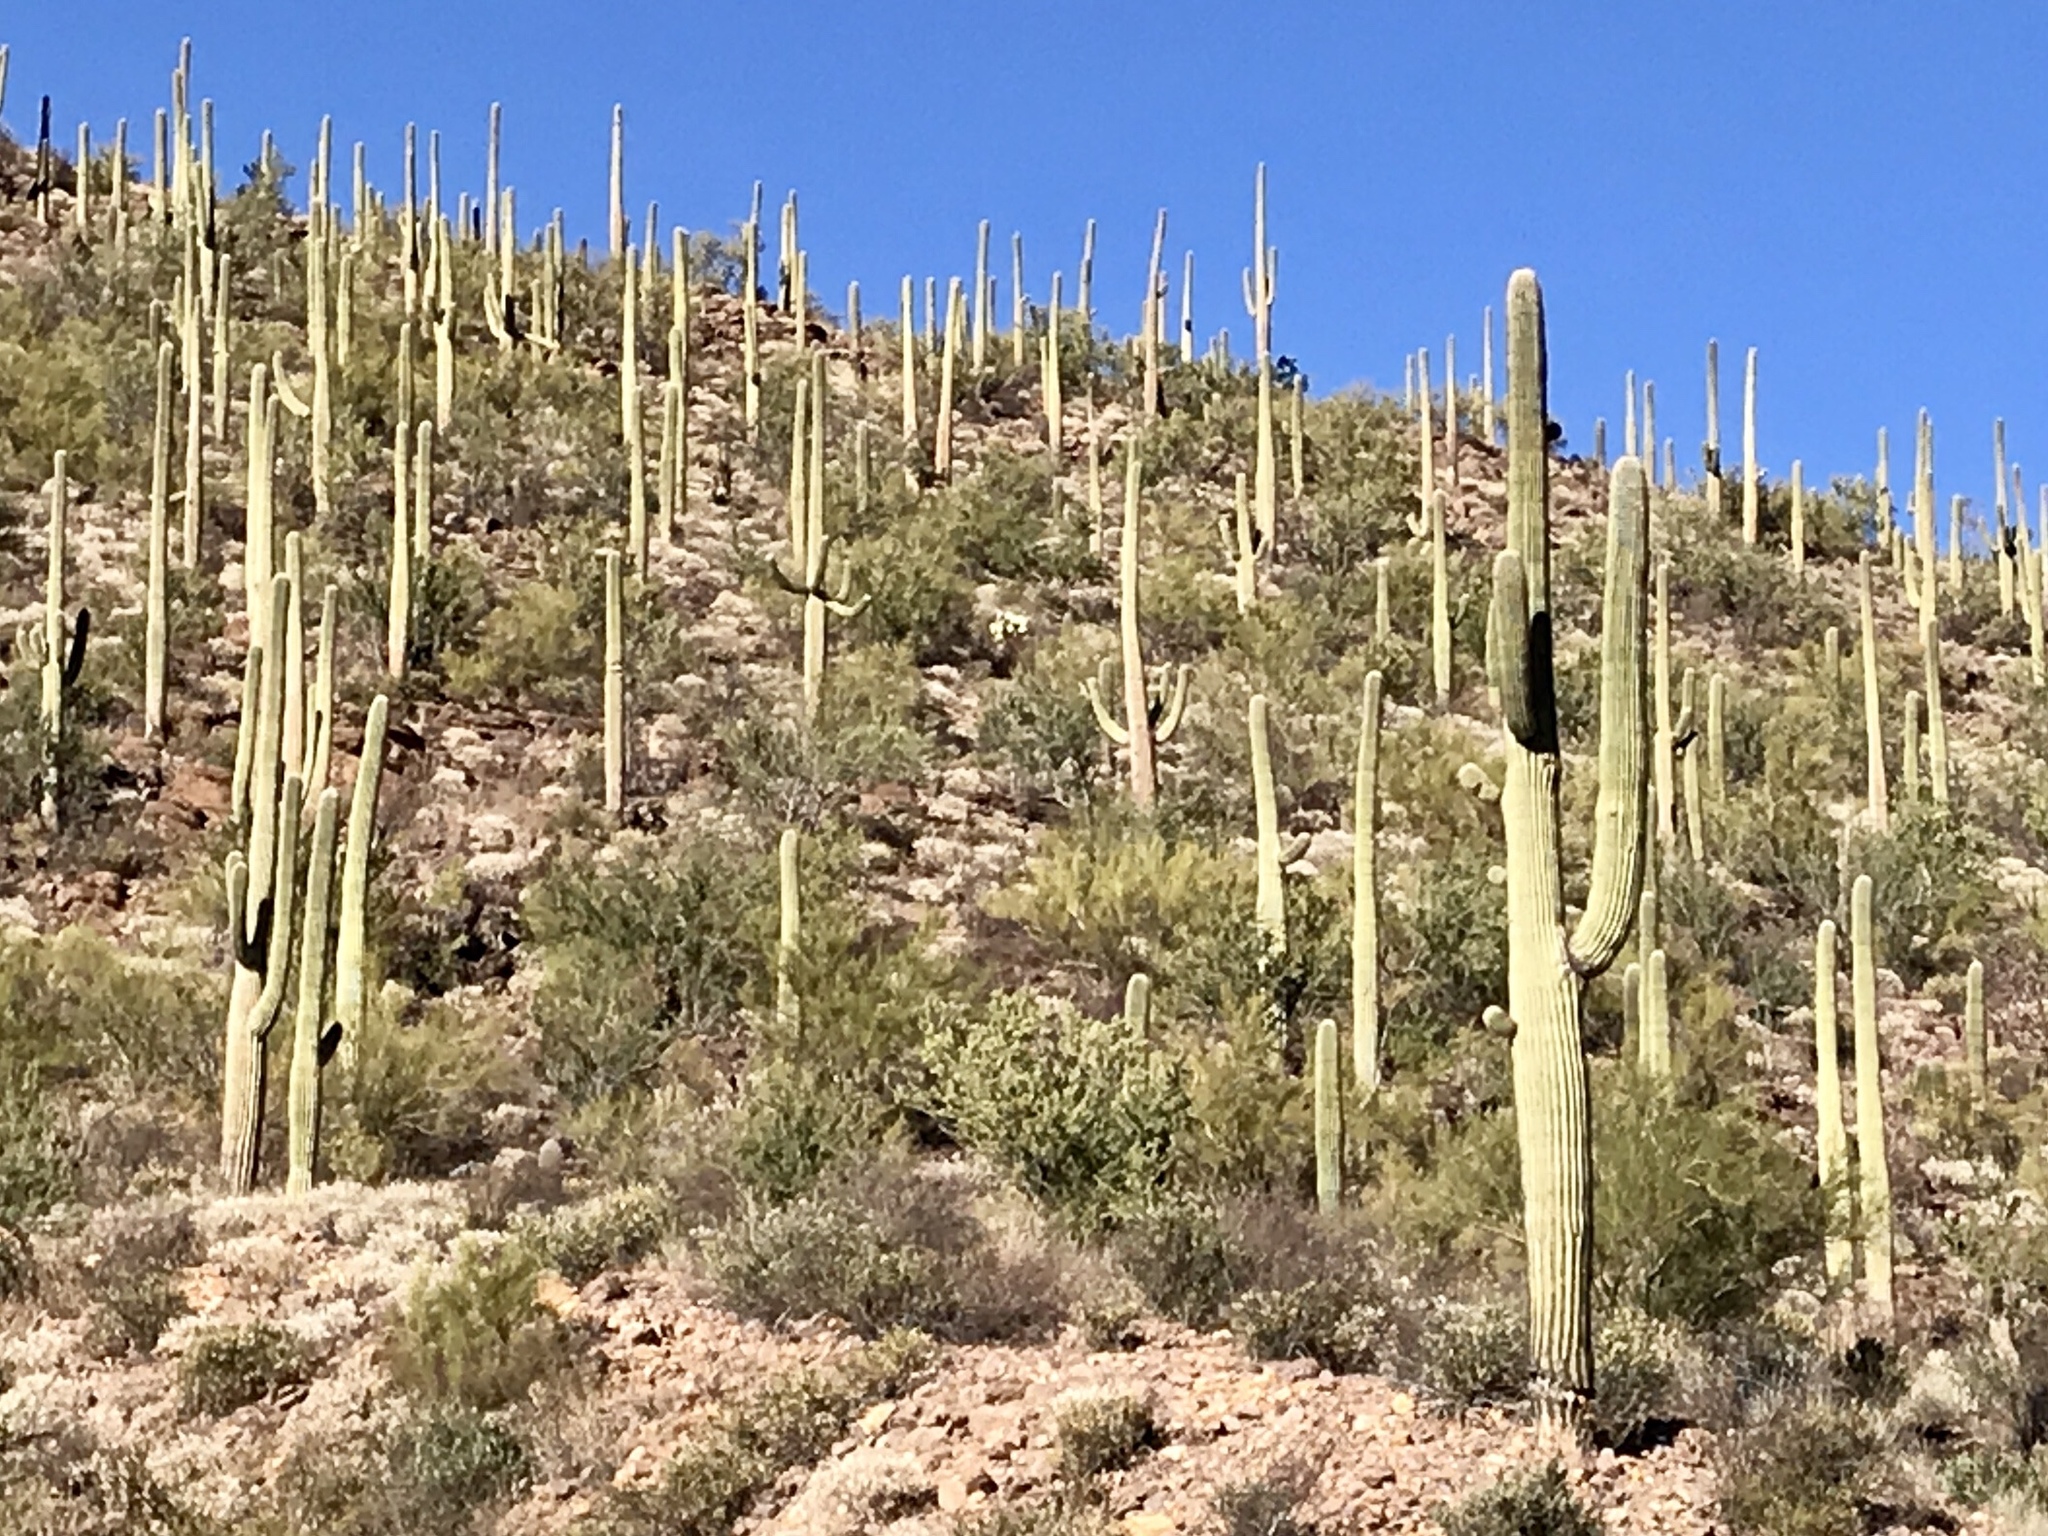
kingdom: Plantae
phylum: Tracheophyta
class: Magnoliopsida
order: Caryophyllales
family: Cactaceae
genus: Carnegiea
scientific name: Carnegiea gigantea
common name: Saguaro
